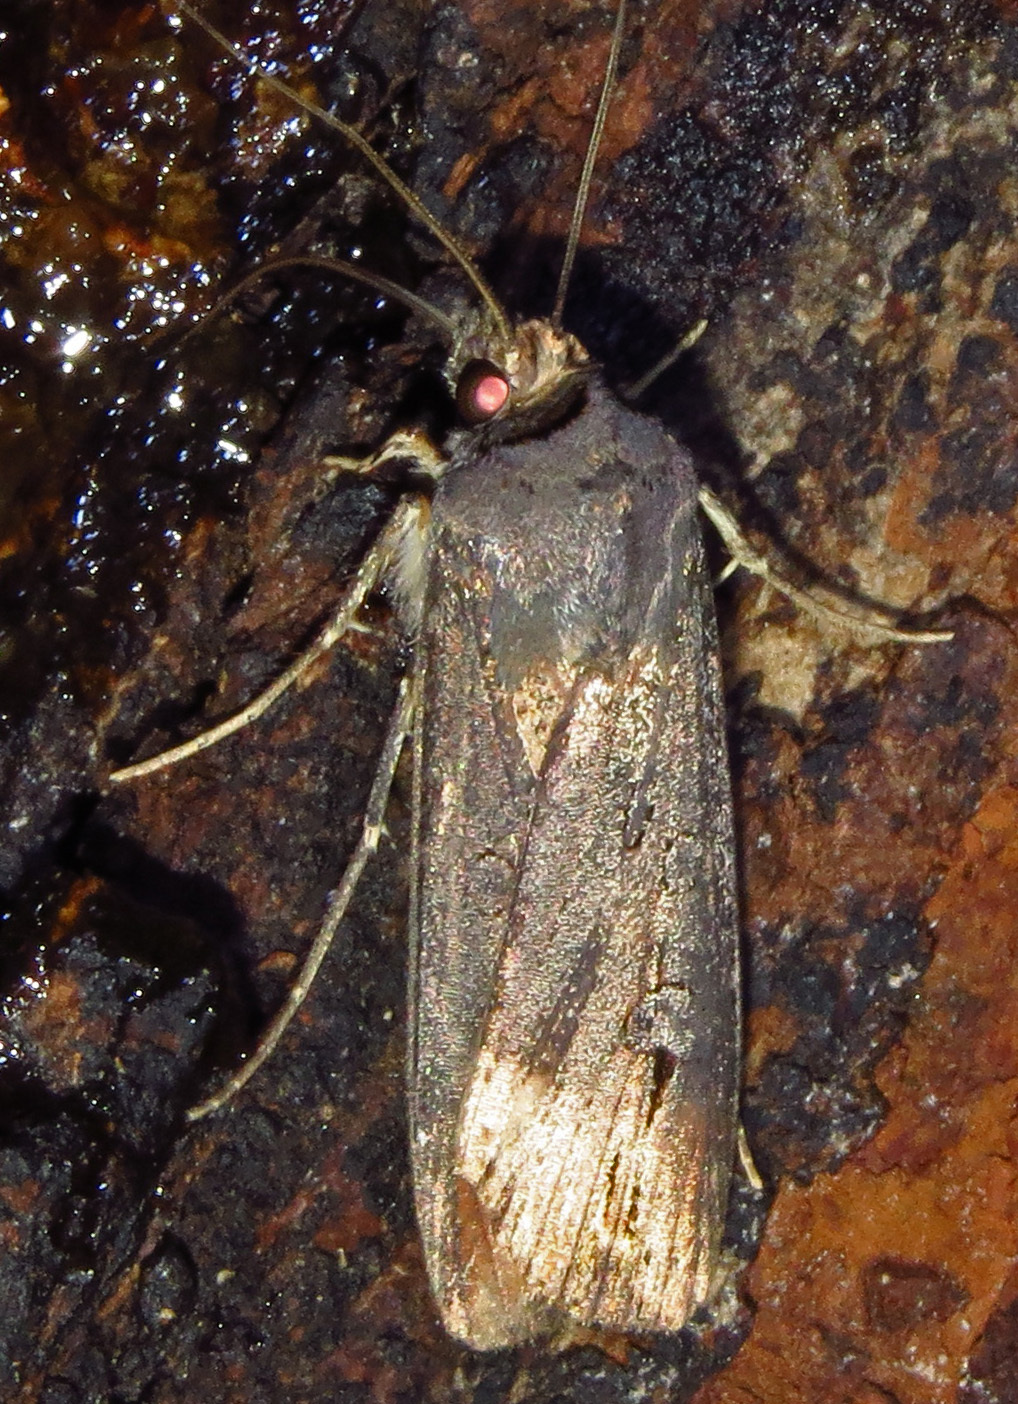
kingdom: Animalia
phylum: Arthropoda
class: Insecta
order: Lepidoptera
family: Noctuidae
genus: Agrotis
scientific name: Agrotis ipsilon
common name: Dark sword-grass
